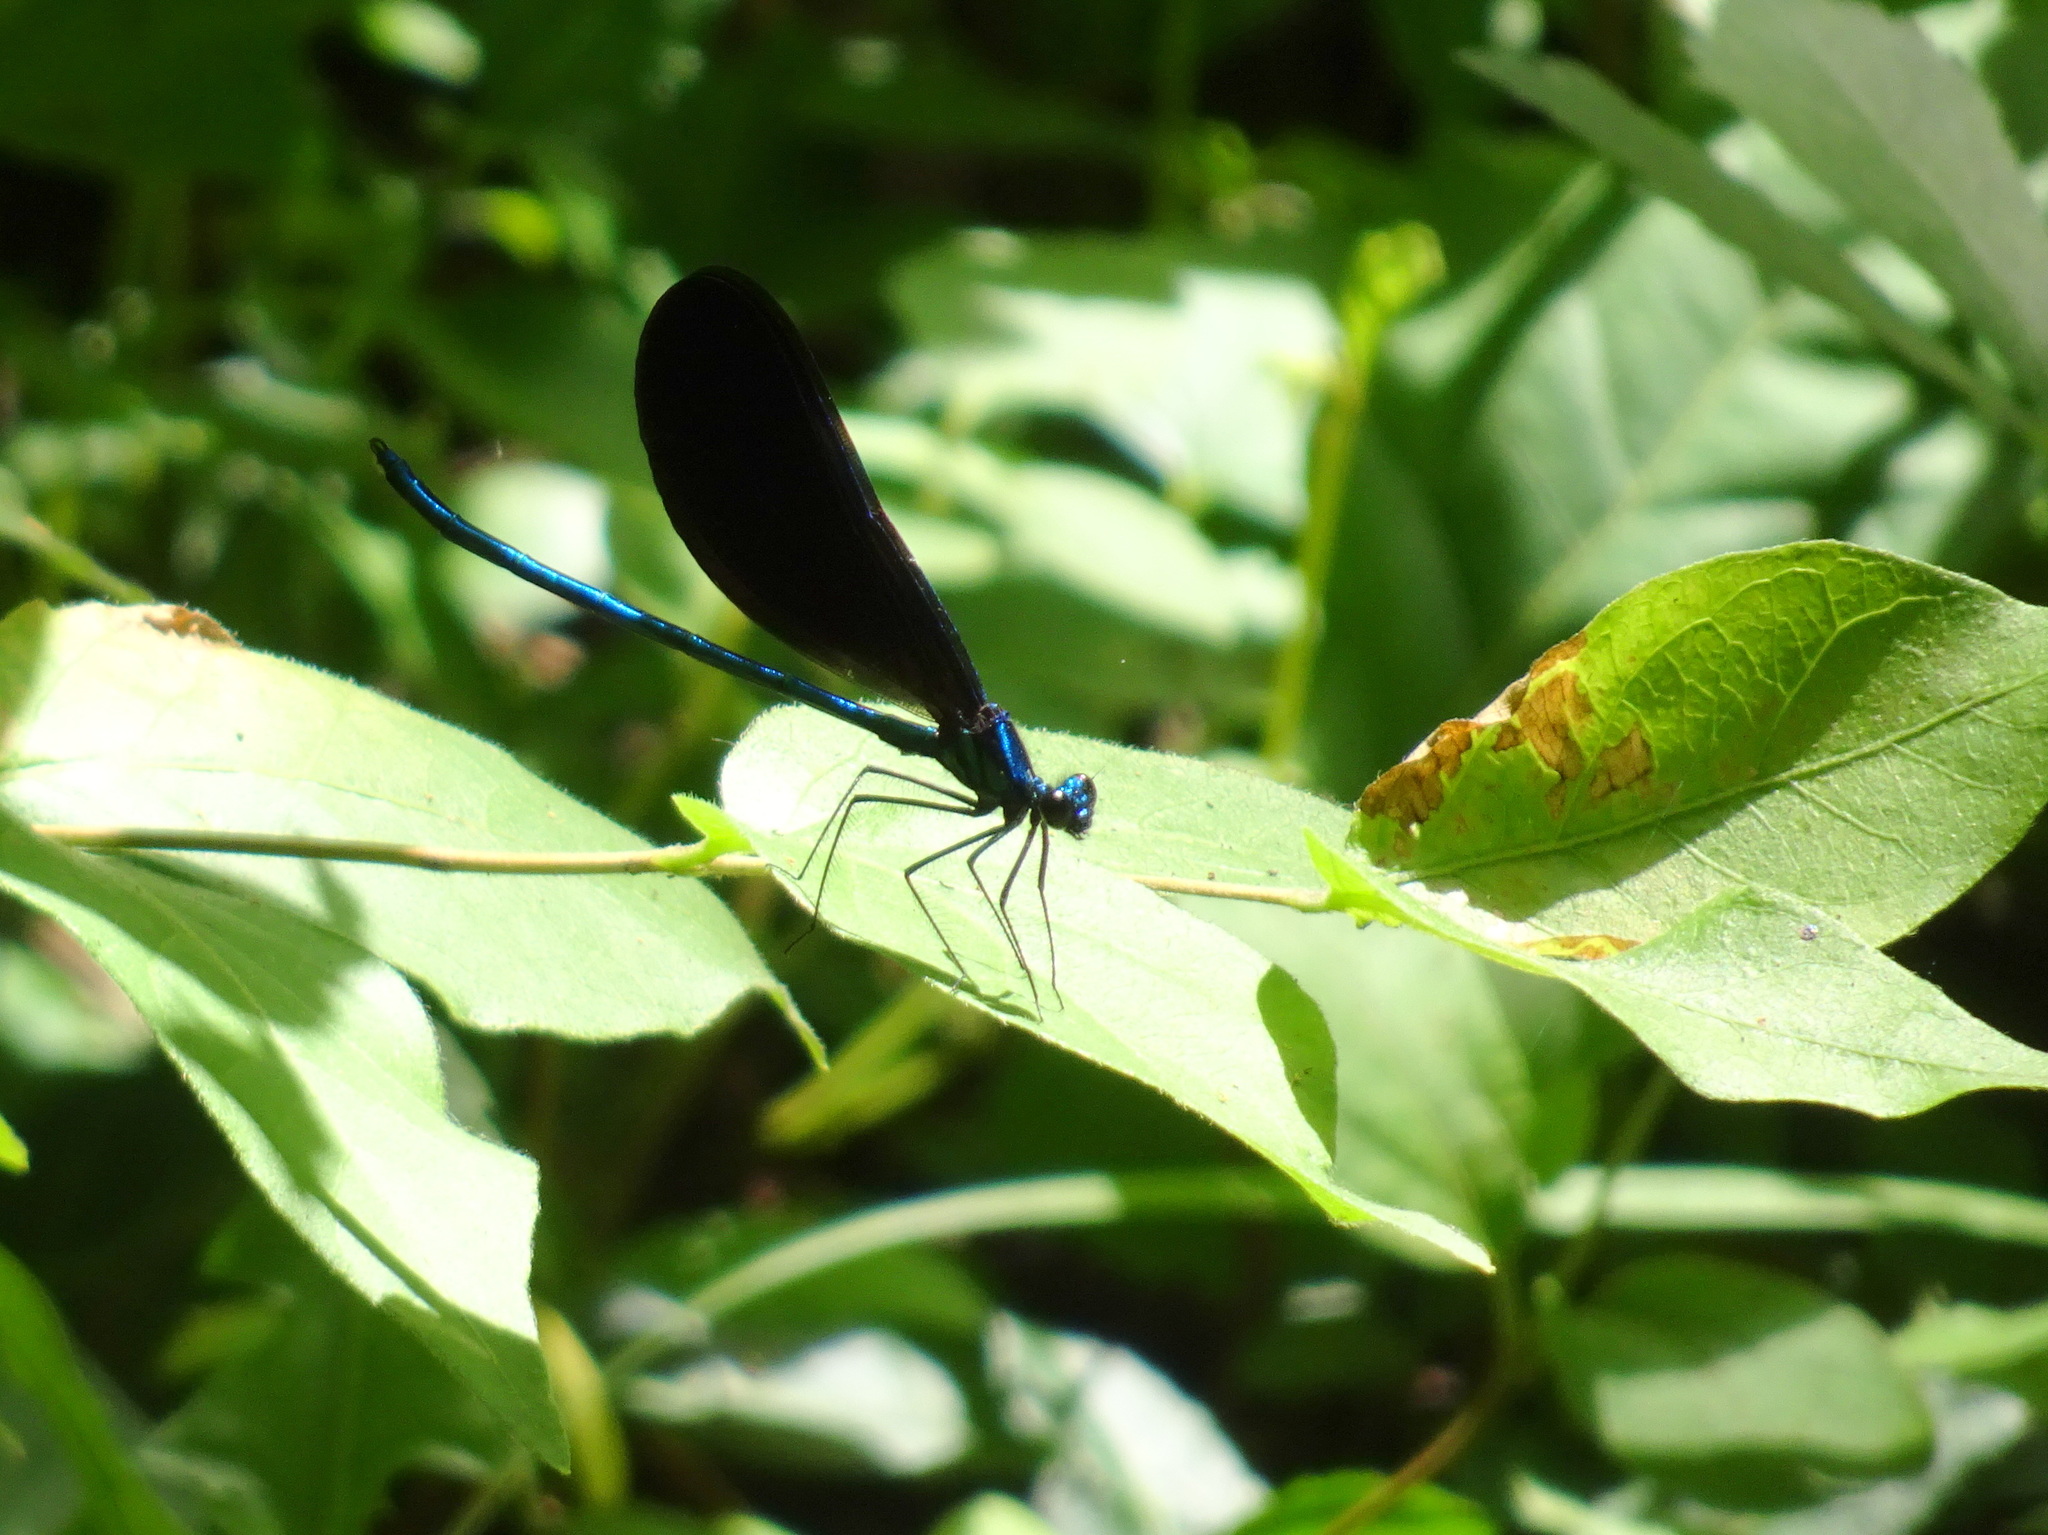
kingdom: Animalia
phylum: Arthropoda
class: Insecta
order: Odonata
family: Calopterygidae
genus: Calopteryx
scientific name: Calopteryx maculata
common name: Ebony jewelwing
